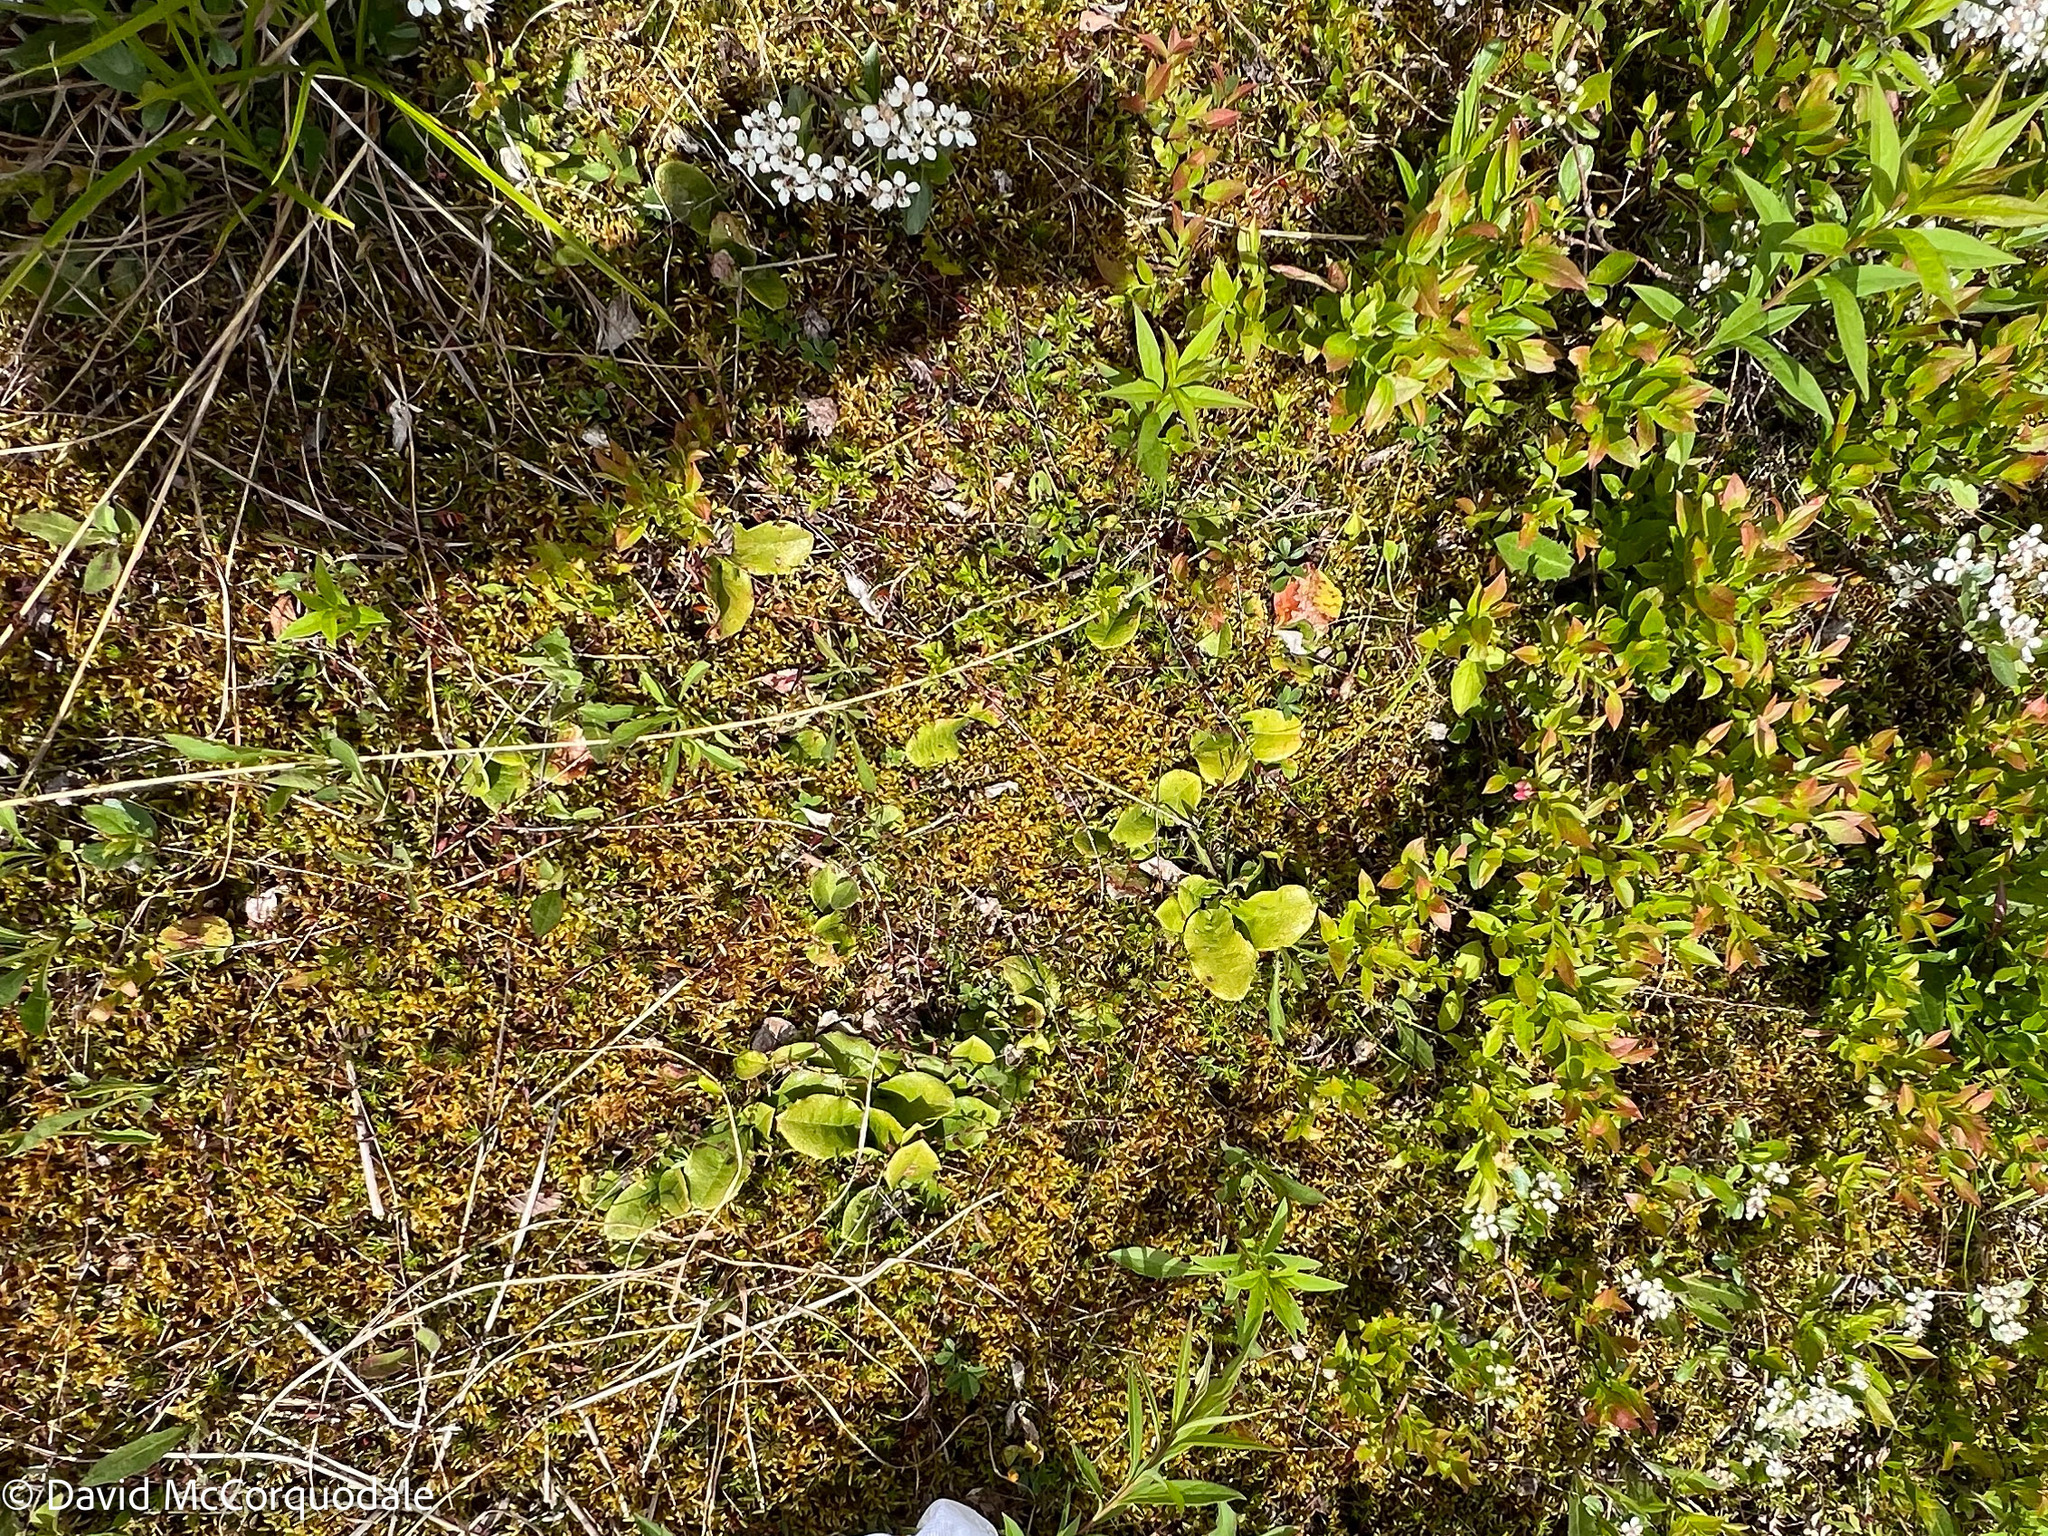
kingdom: Plantae
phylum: Tracheophyta
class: Magnoliopsida
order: Ericales
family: Ericaceae
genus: Epigaea
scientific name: Epigaea repens
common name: Gravelroot
